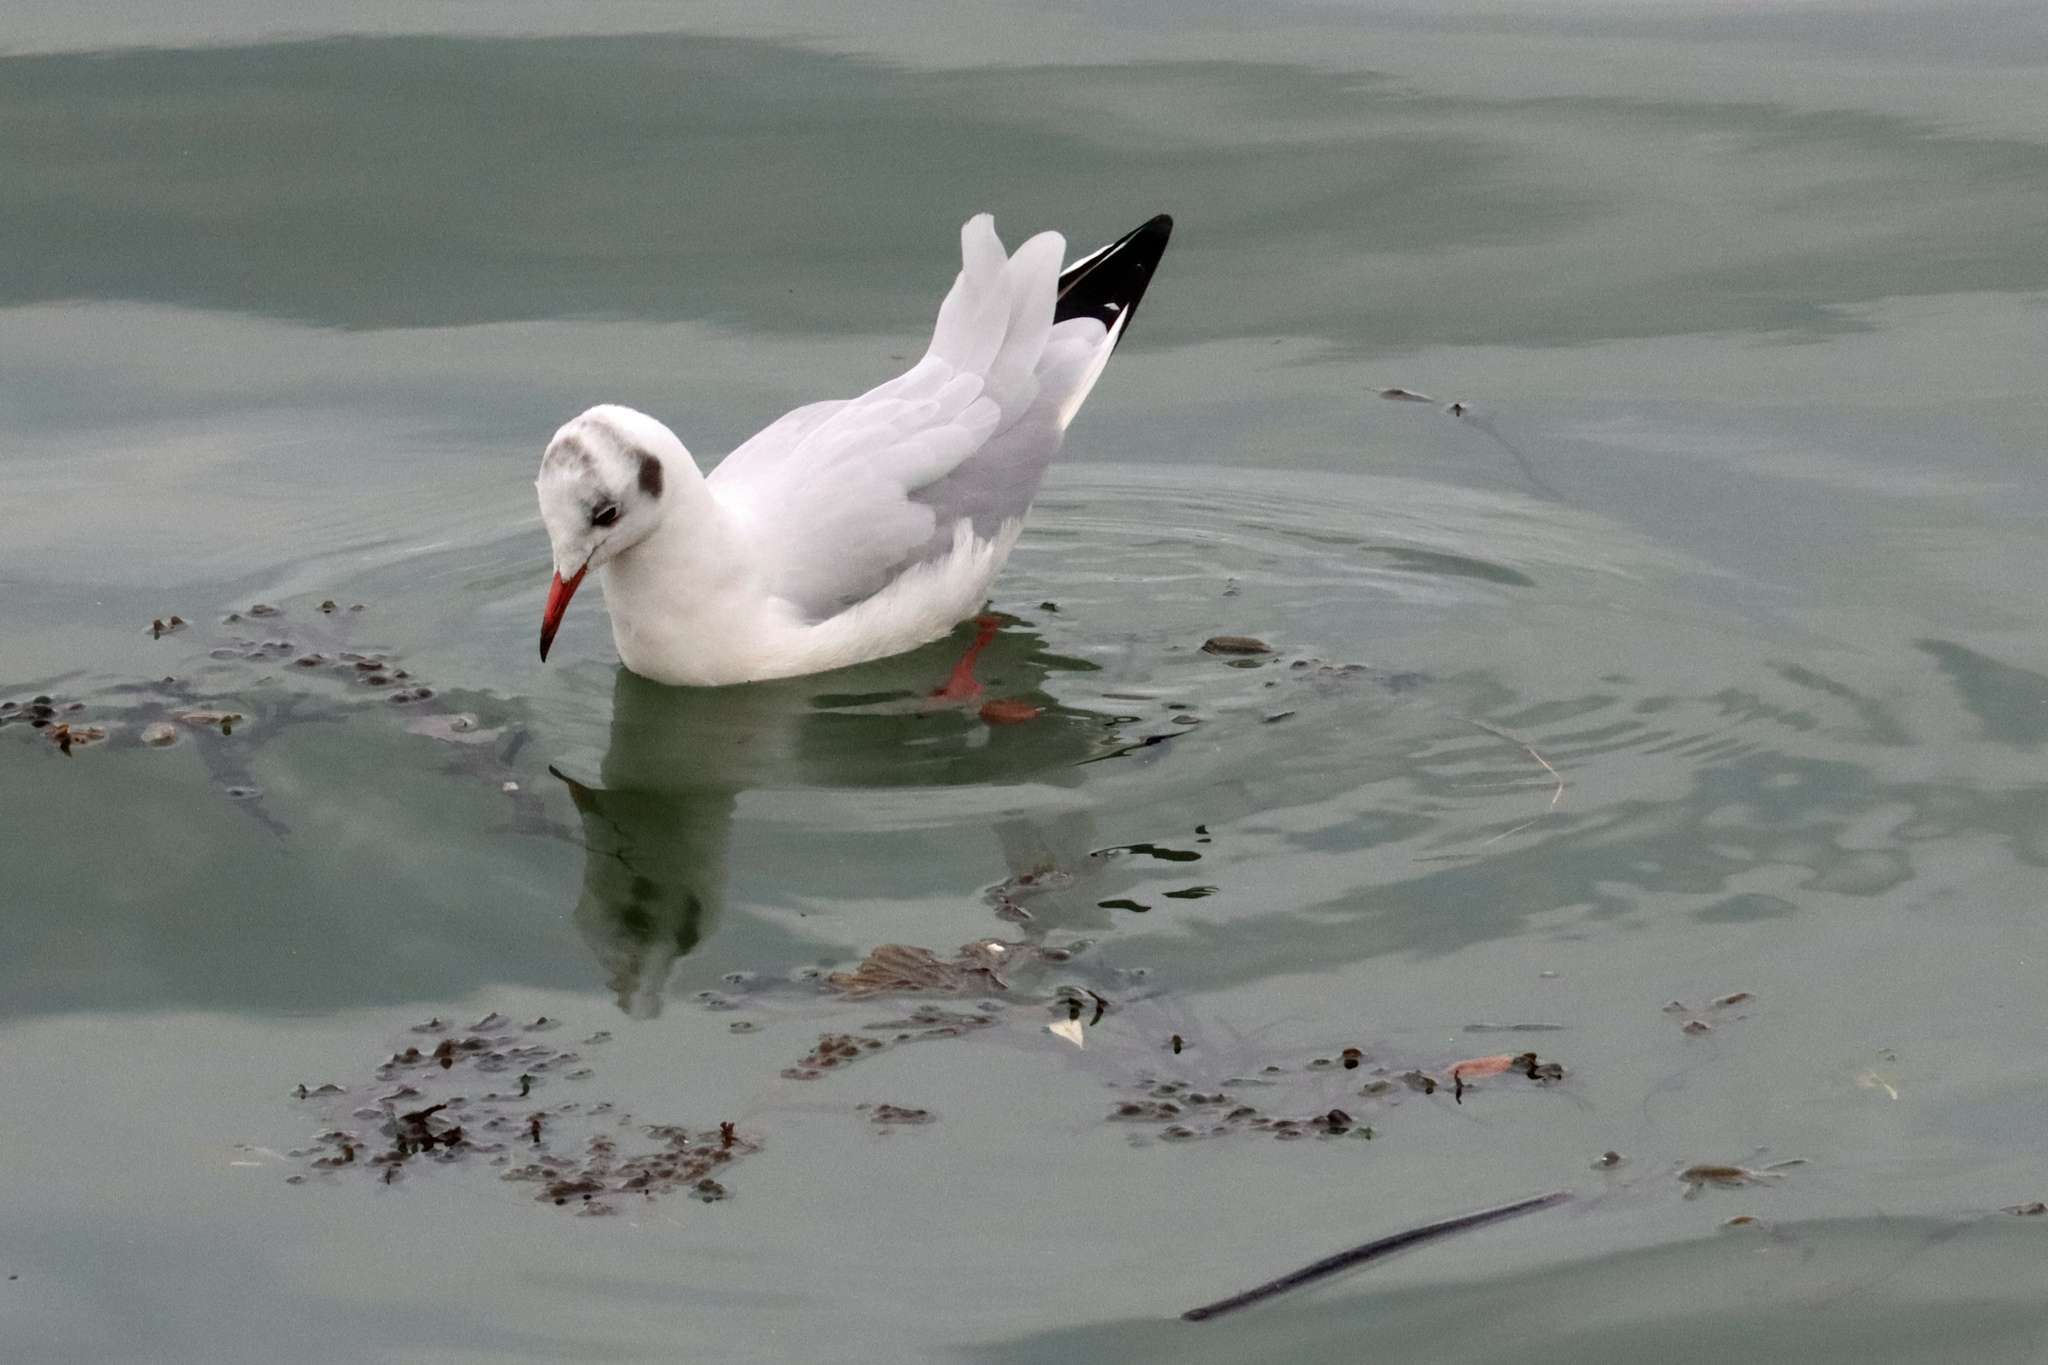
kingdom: Animalia
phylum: Chordata
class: Aves
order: Charadriiformes
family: Laridae
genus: Chroicocephalus
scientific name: Chroicocephalus ridibundus
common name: Black-headed gull
